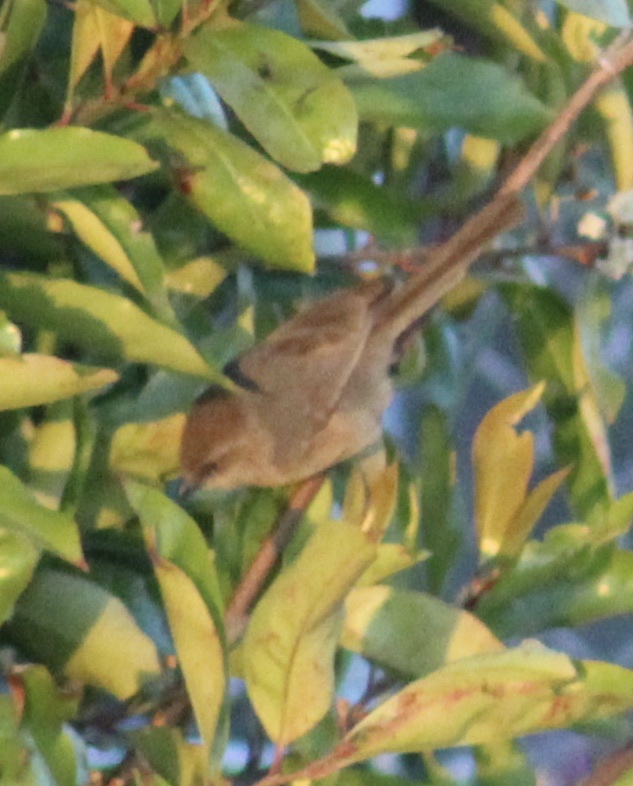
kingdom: Animalia
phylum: Chordata
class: Aves
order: Passeriformes
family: Aegithalidae
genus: Psaltriparus
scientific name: Psaltriparus minimus
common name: American bushtit
